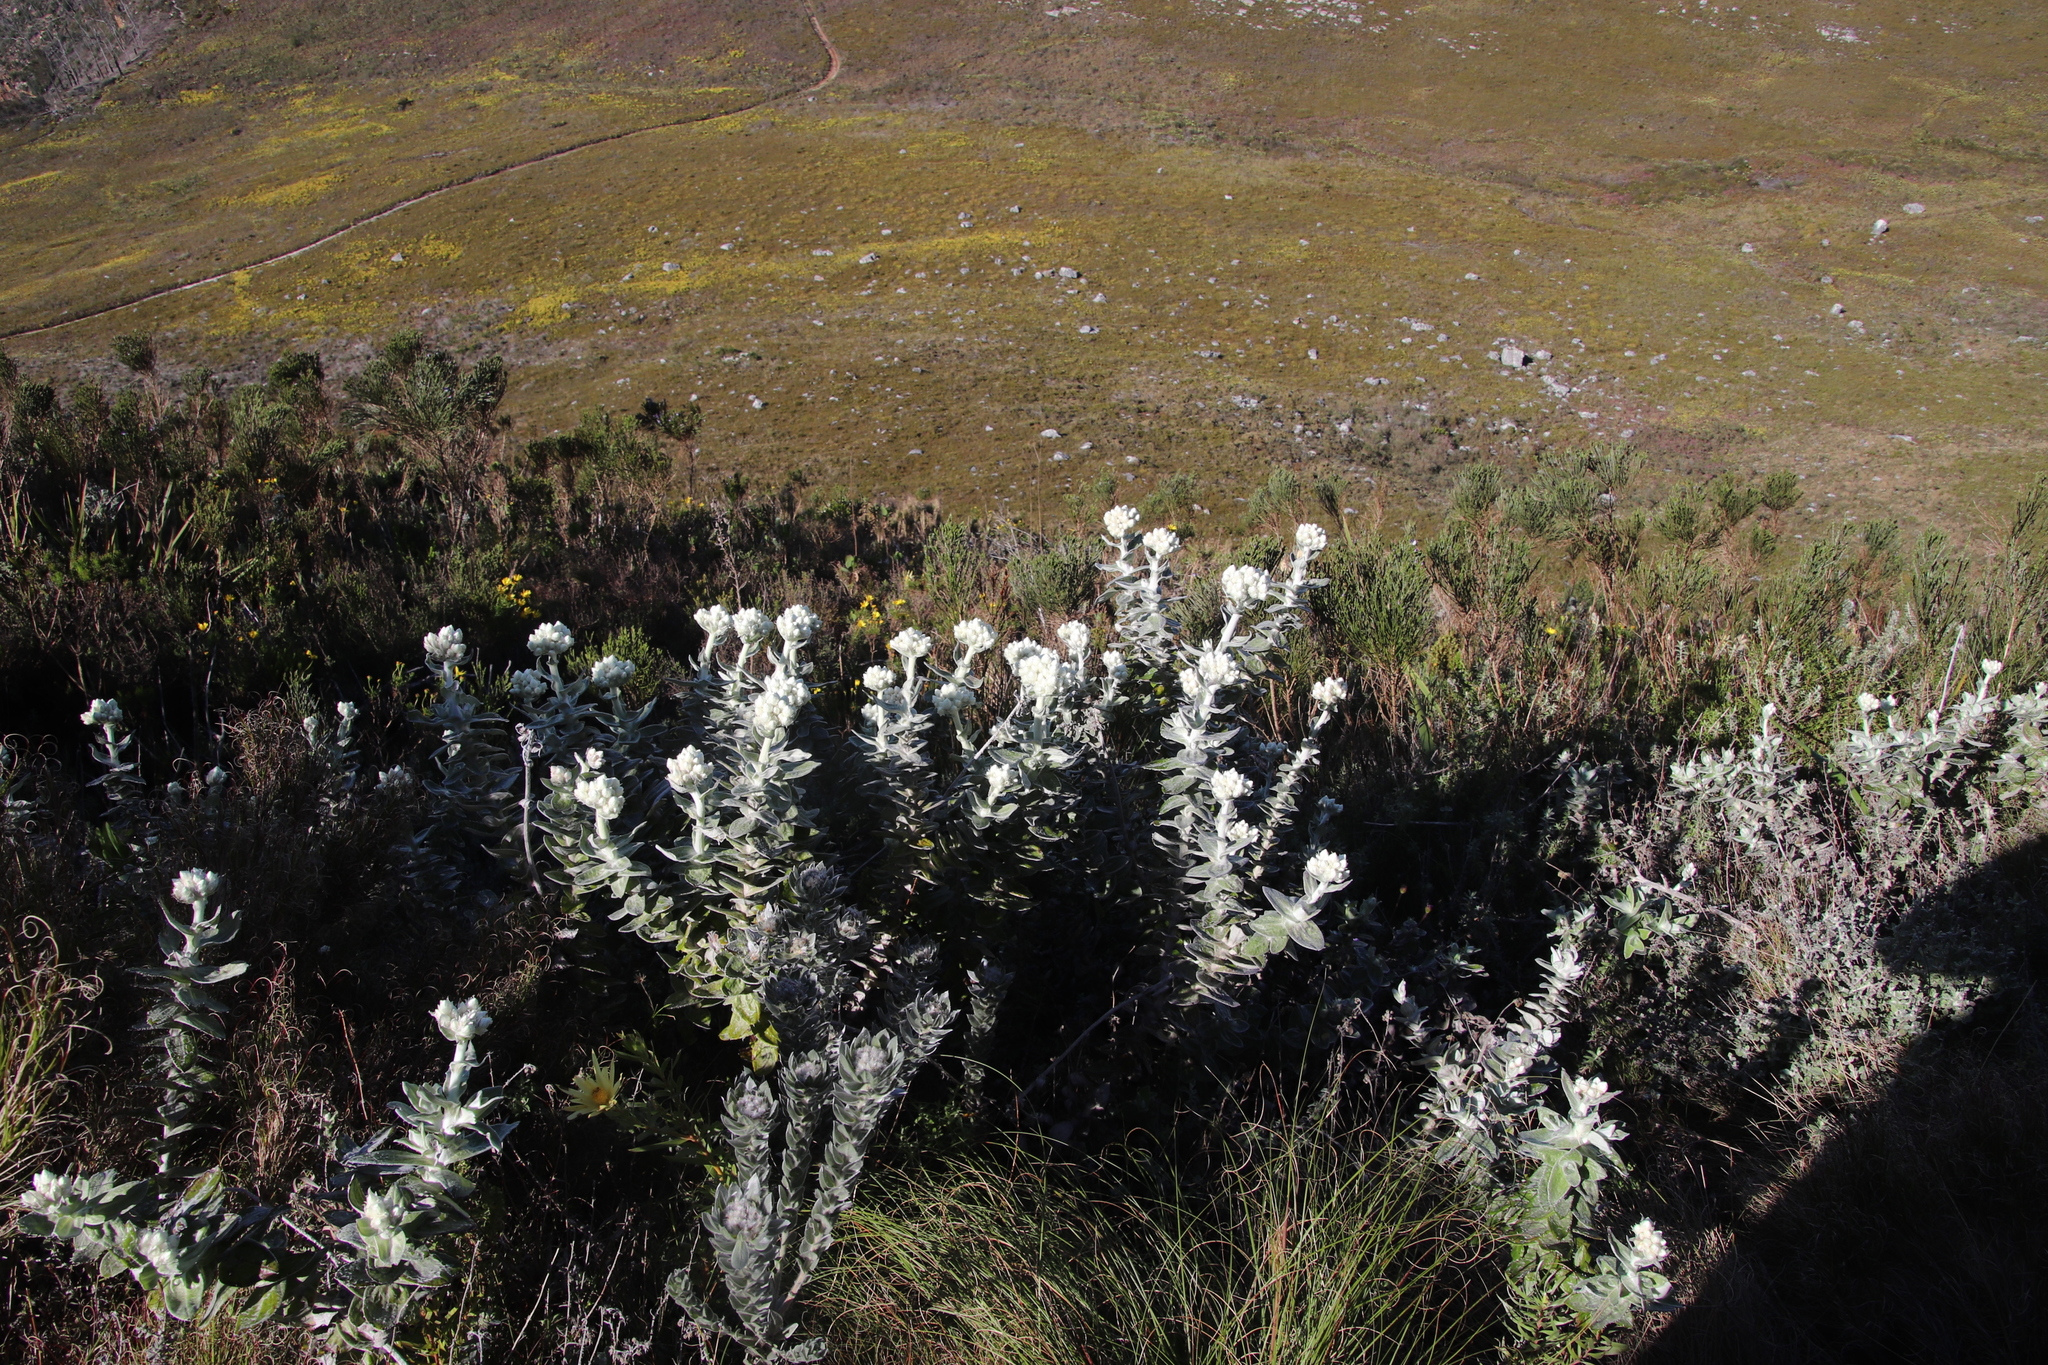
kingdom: Plantae
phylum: Tracheophyta
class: Magnoliopsida
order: Asterales
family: Asteraceae
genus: Helichrysum
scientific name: Helichrysum foetidum
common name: Stinking everlasting
